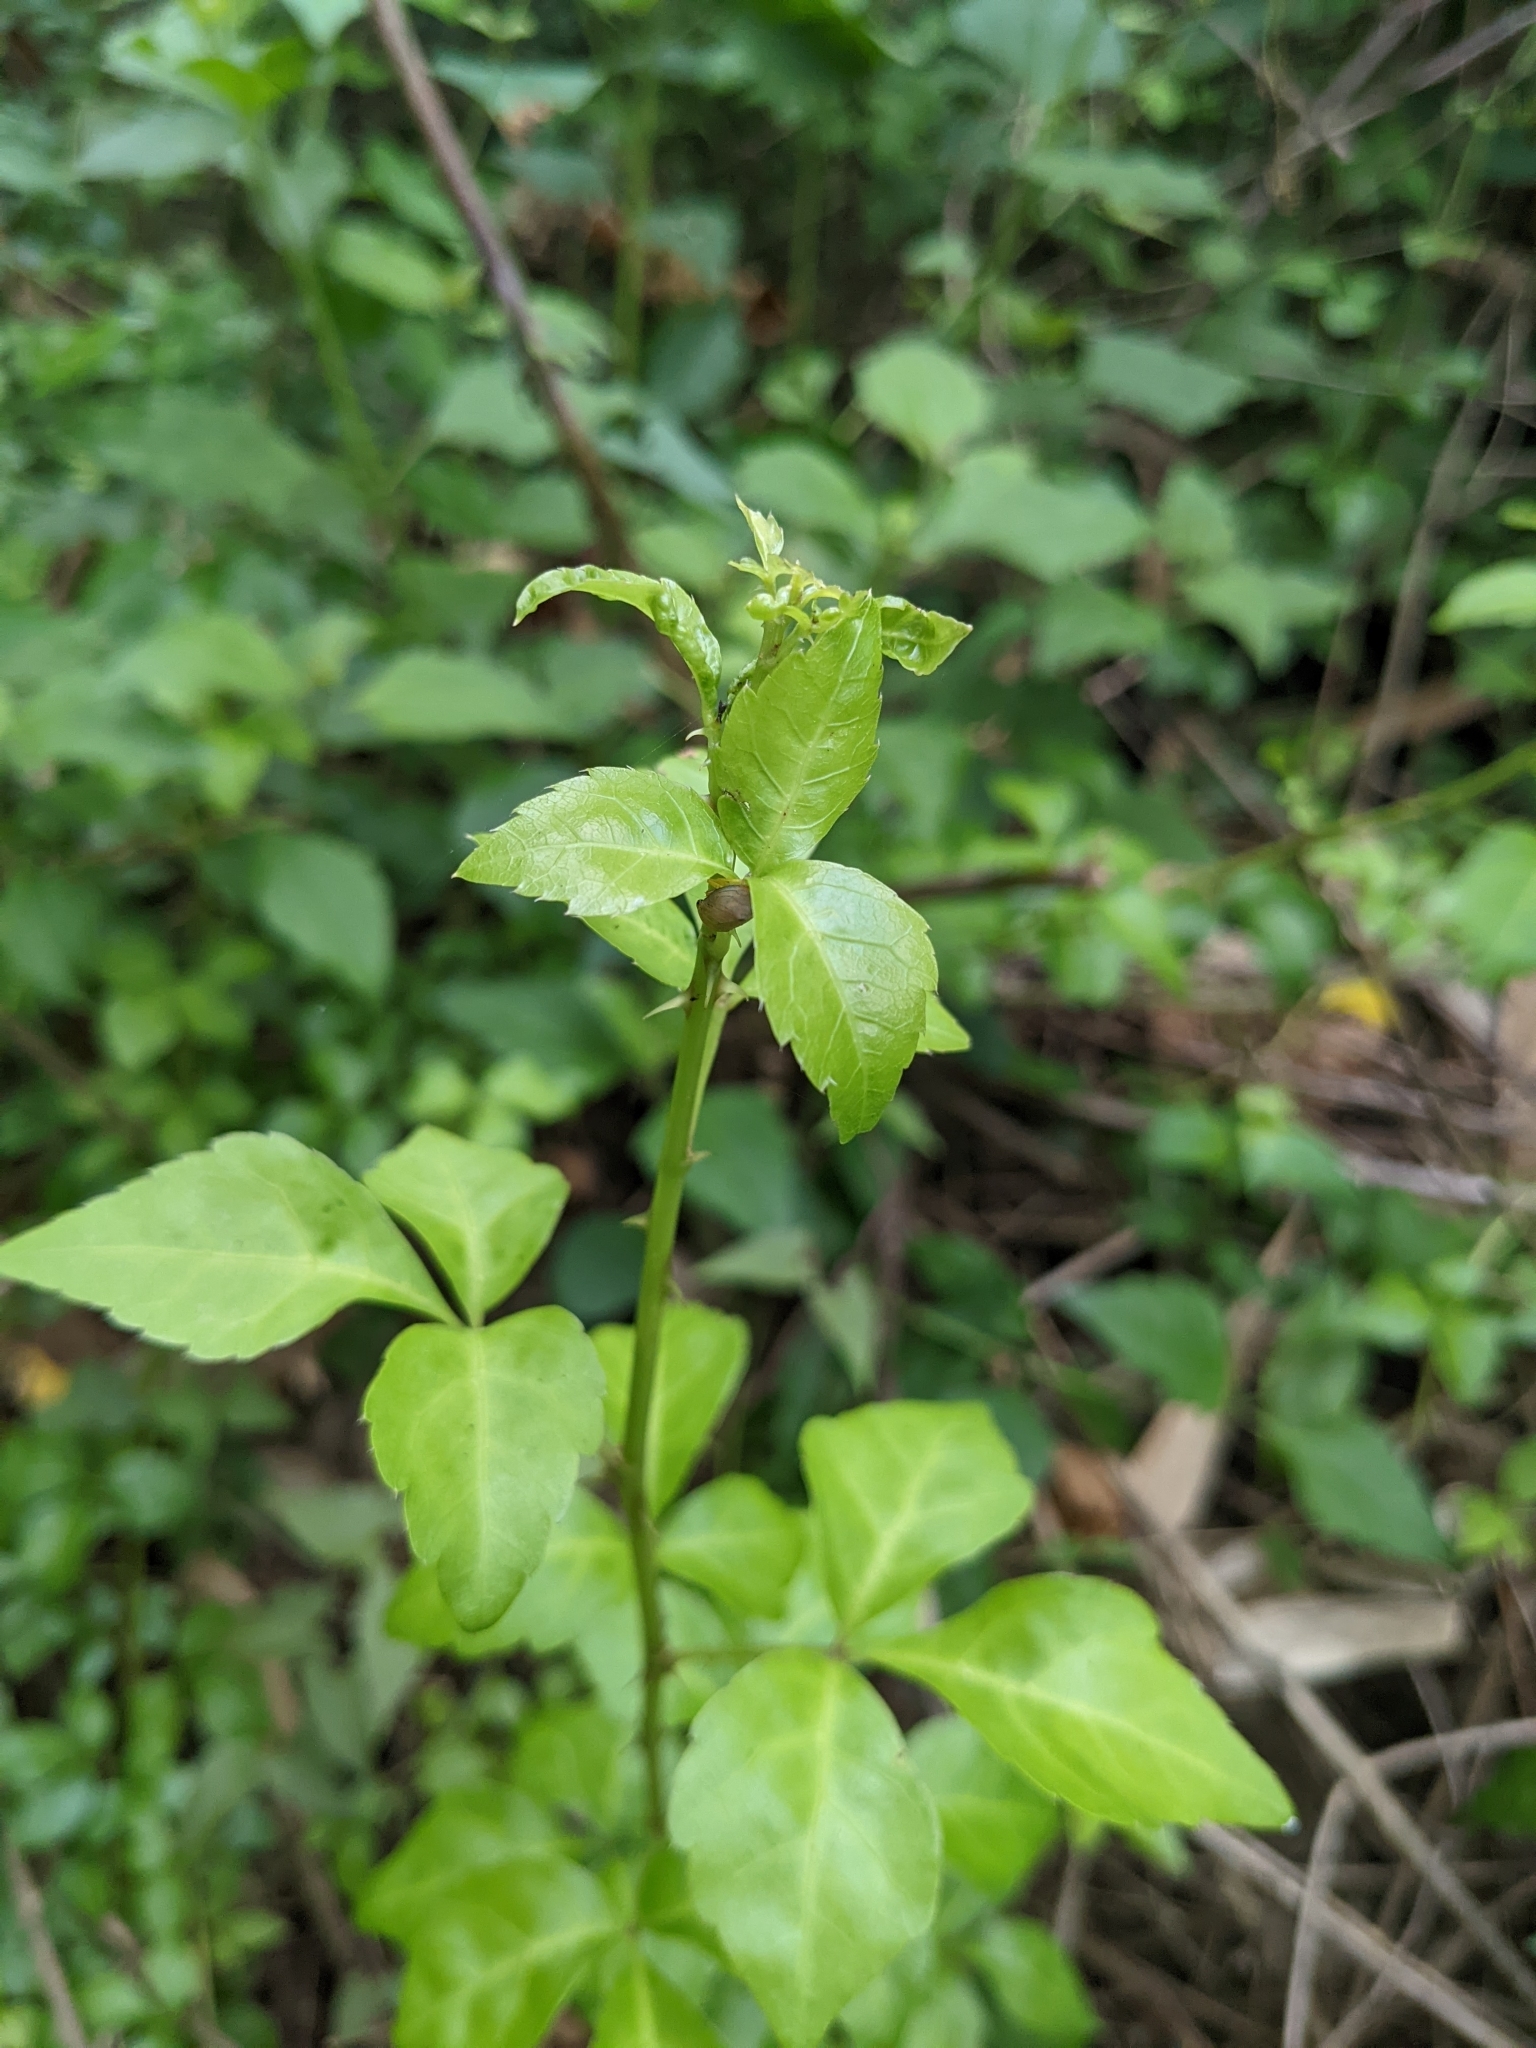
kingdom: Plantae
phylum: Tracheophyta
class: Magnoliopsida
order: Apiales
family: Araliaceae
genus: Eleutherococcus
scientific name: Eleutherococcus trifoliatus
